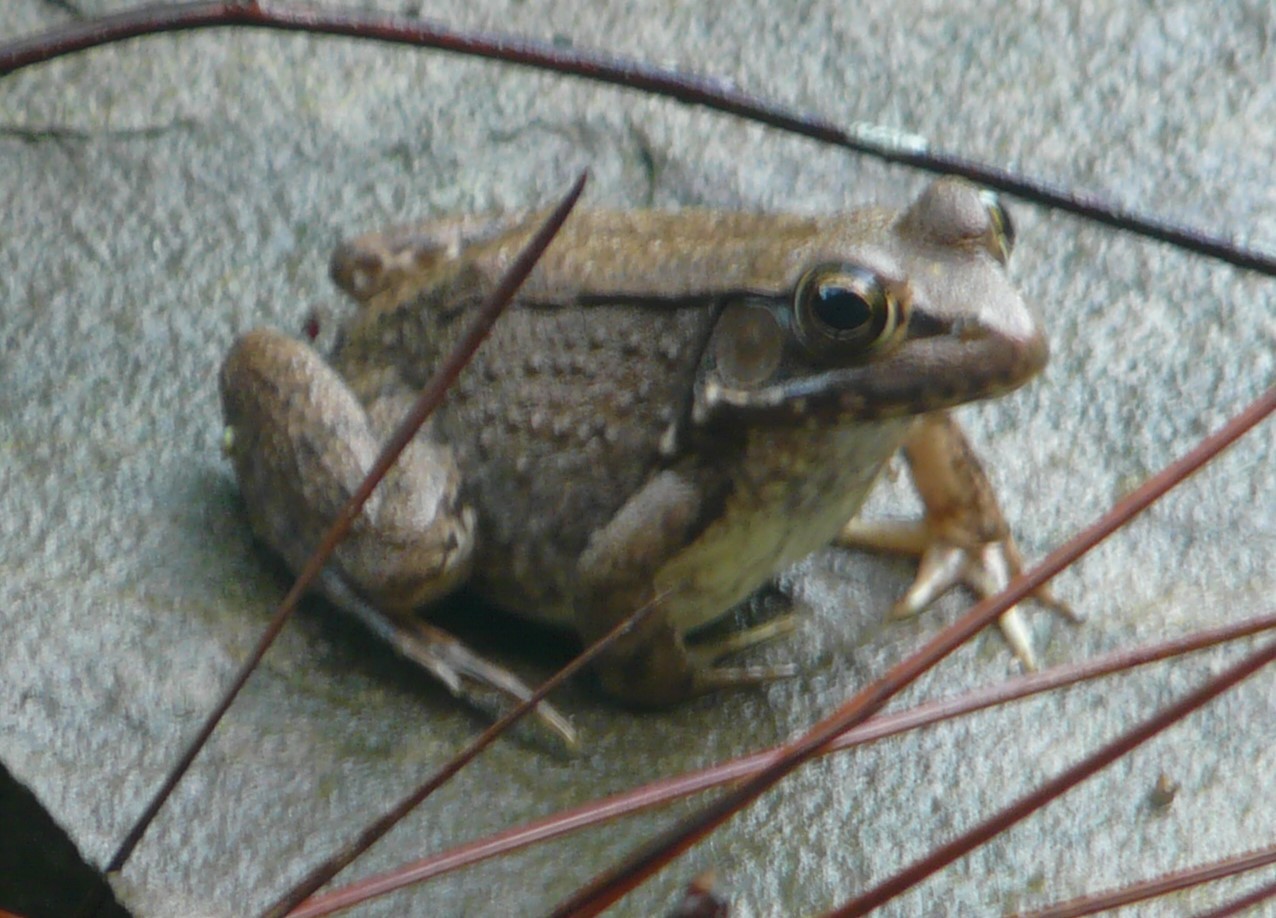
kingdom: Animalia
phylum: Chordata
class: Amphibia
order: Anura
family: Ranidae
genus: Lithobates
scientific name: Lithobates clamitans
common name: Green frog
